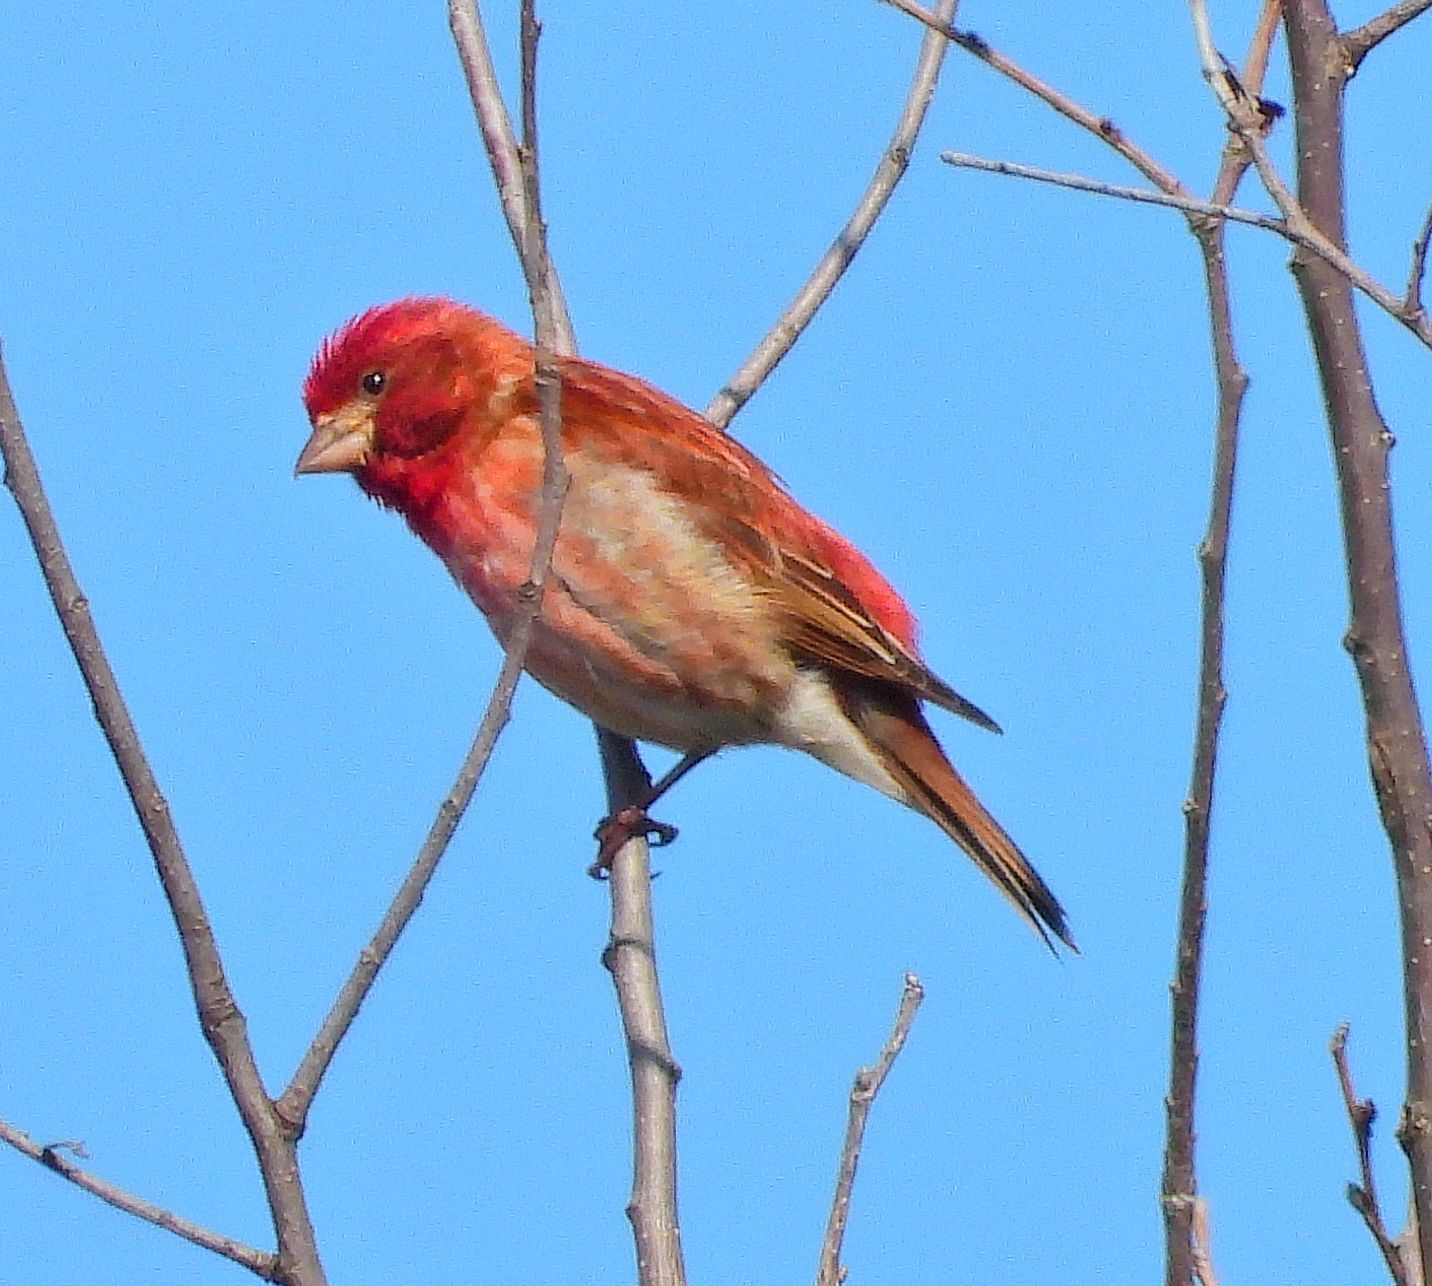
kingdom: Animalia
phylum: Chordata
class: Aves
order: Passeriformes
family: Fringillidae
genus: Haemorhous
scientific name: Haemorhous purpureus
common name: Purple finch
